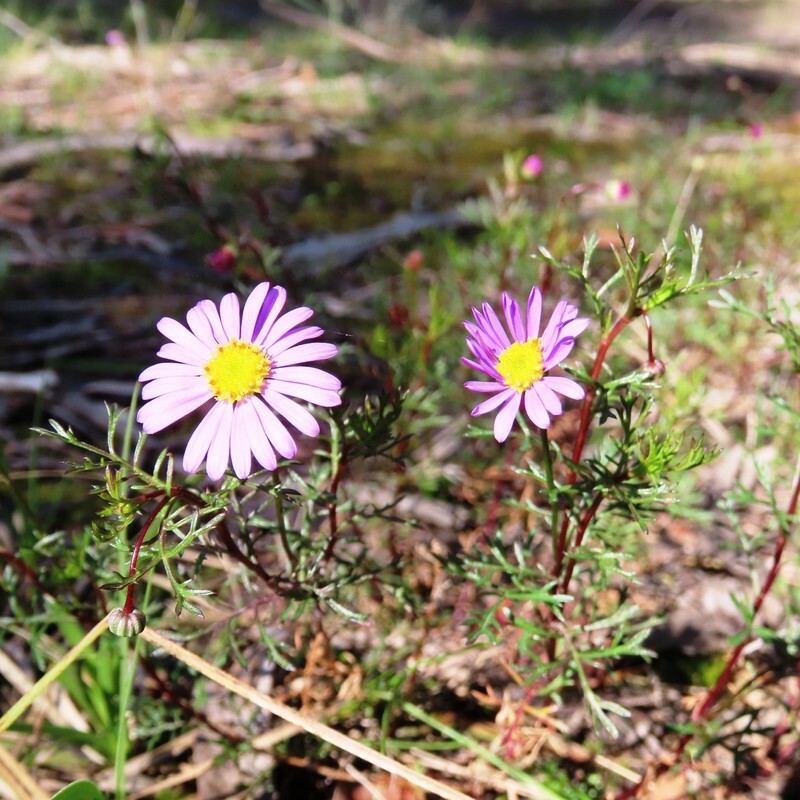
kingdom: Plantae
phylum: Tracheophyta
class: Magnoliopsida
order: Asterales
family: Asteraceae
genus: Brachyscome
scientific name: Brachyscome multifida
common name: Cut-leaf daisy
